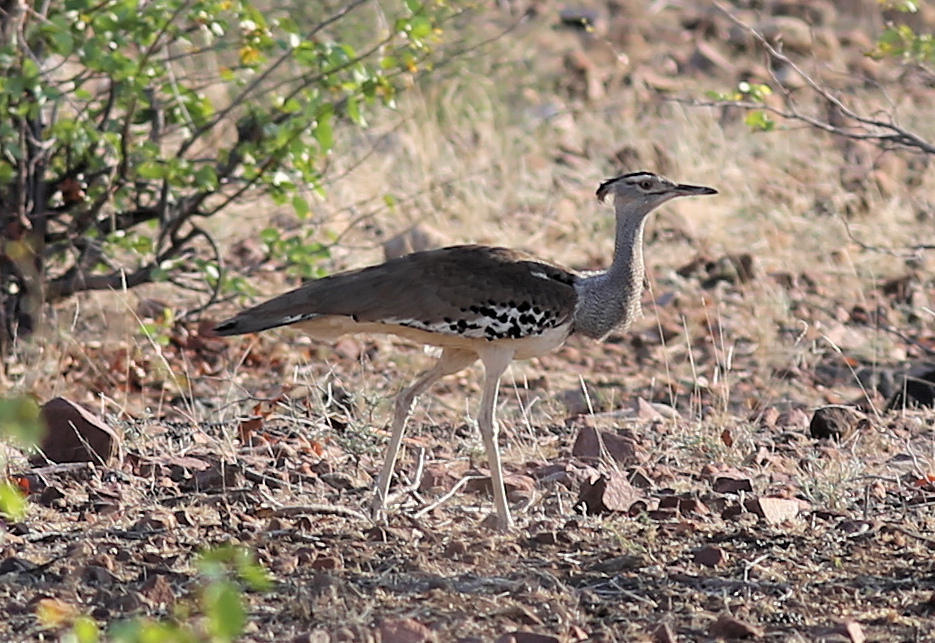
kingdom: Animalia
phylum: Chordata
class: Aves
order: Otidiformes
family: Otididae
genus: Ardeotis
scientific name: Ardeotis kori
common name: Kori bustard
